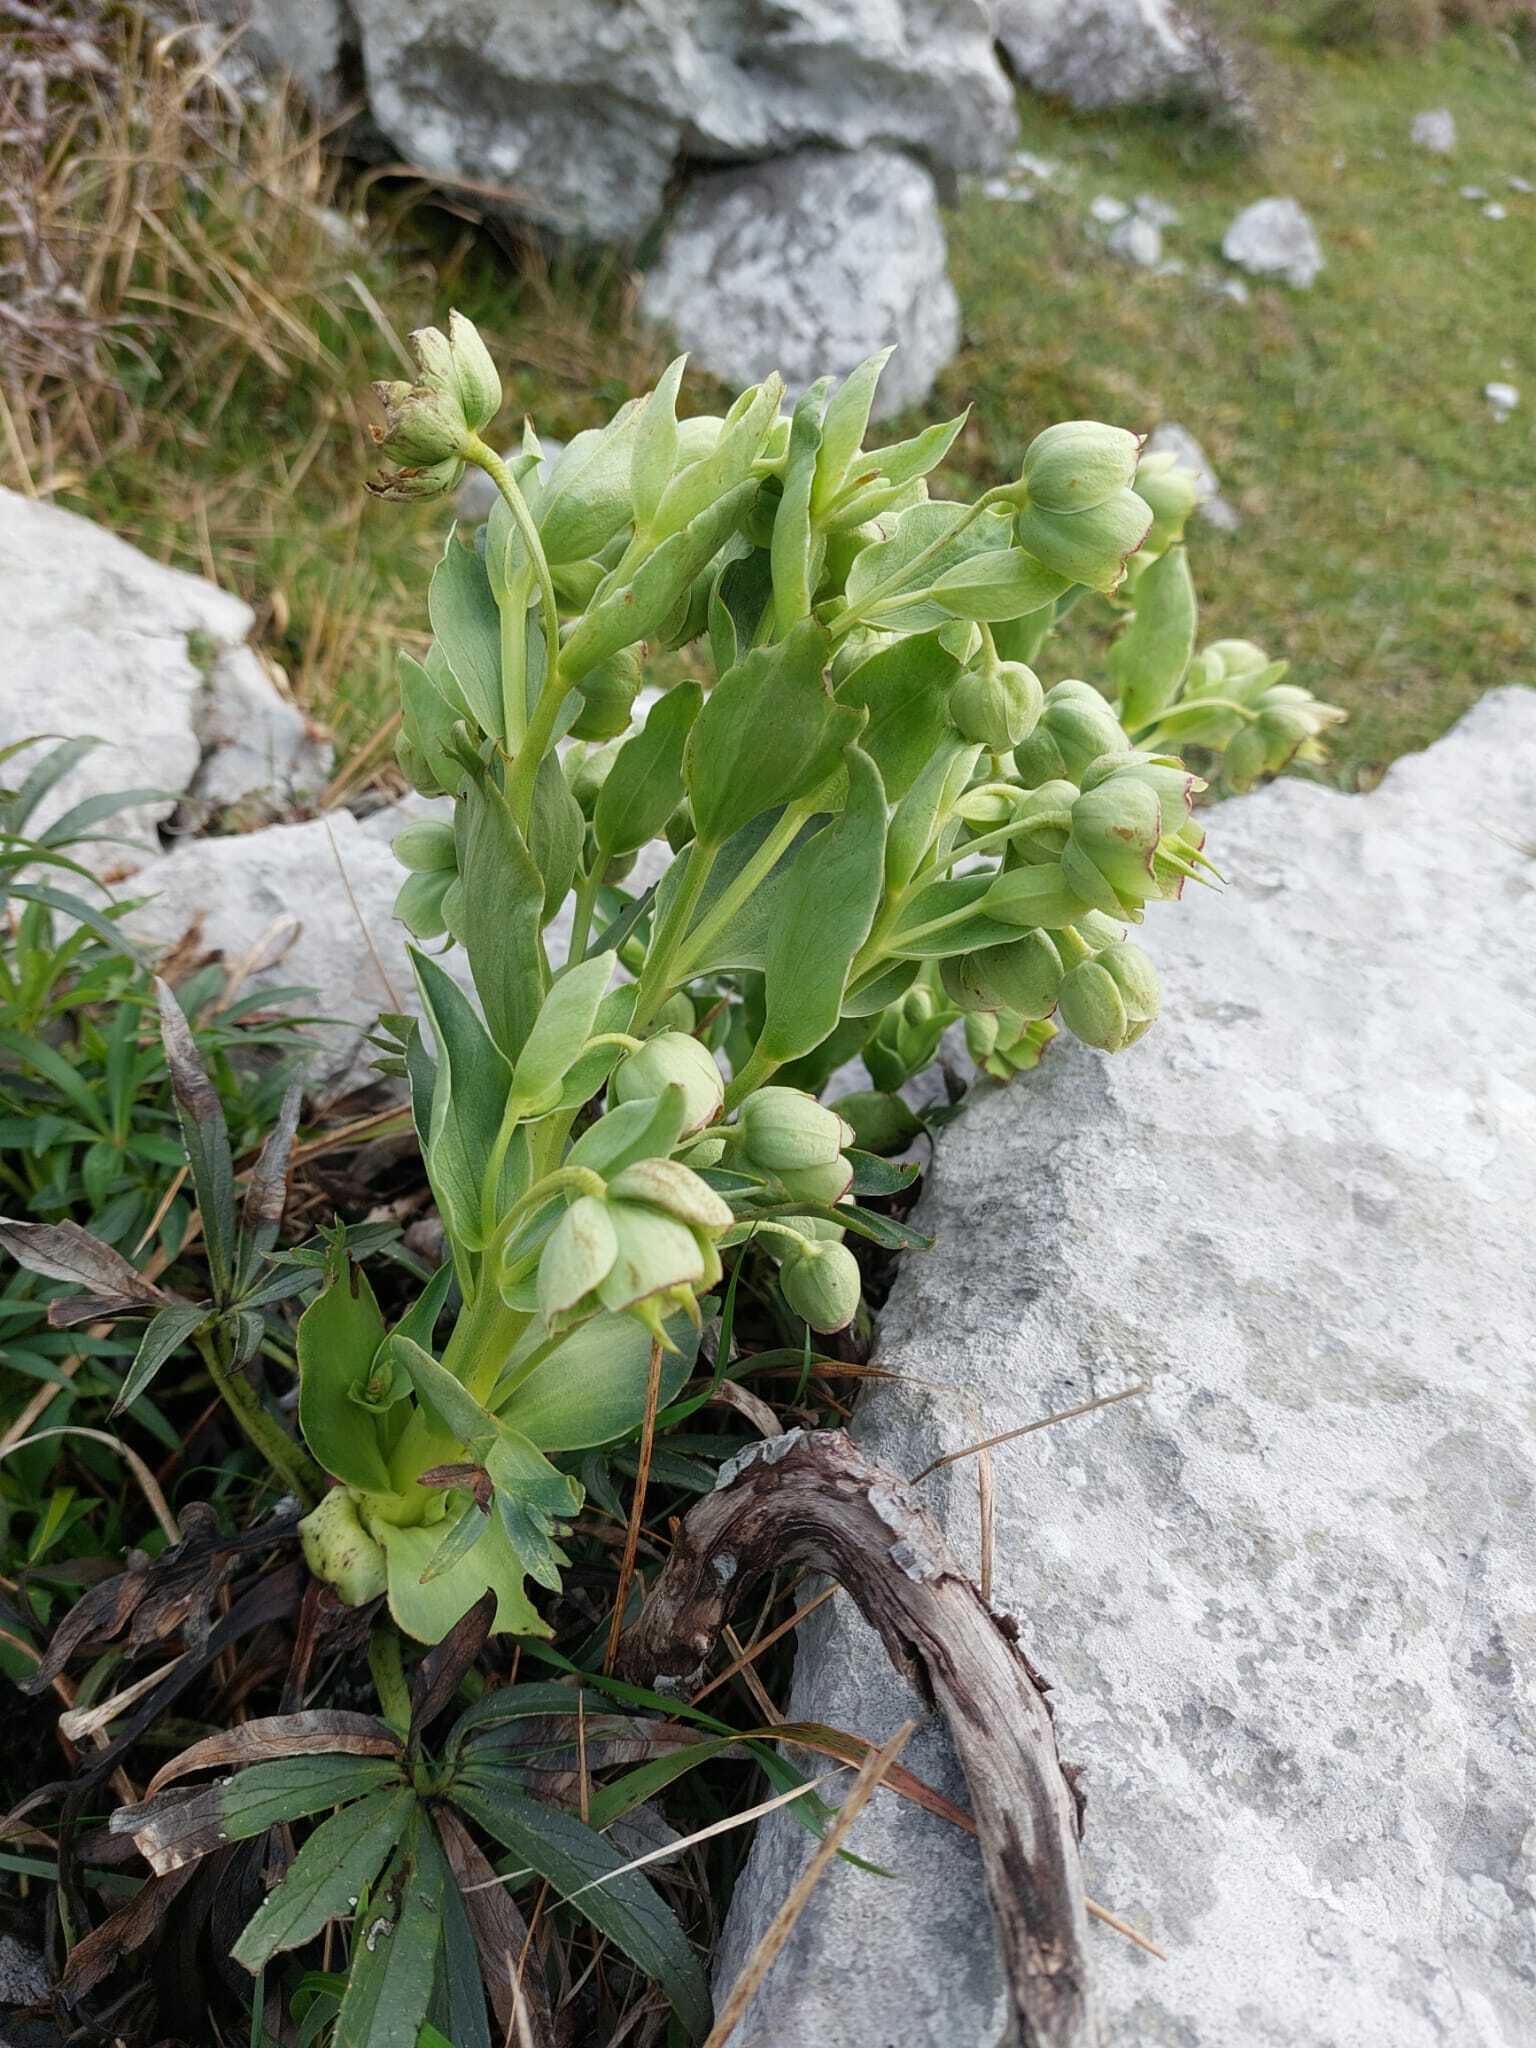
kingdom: Plantae
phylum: Tracheophyta
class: Magnoliopsida
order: Ranunculales
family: Ranunculaceae
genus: Helleborus
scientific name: Helleborus foetidus
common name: Stinking hellebore
